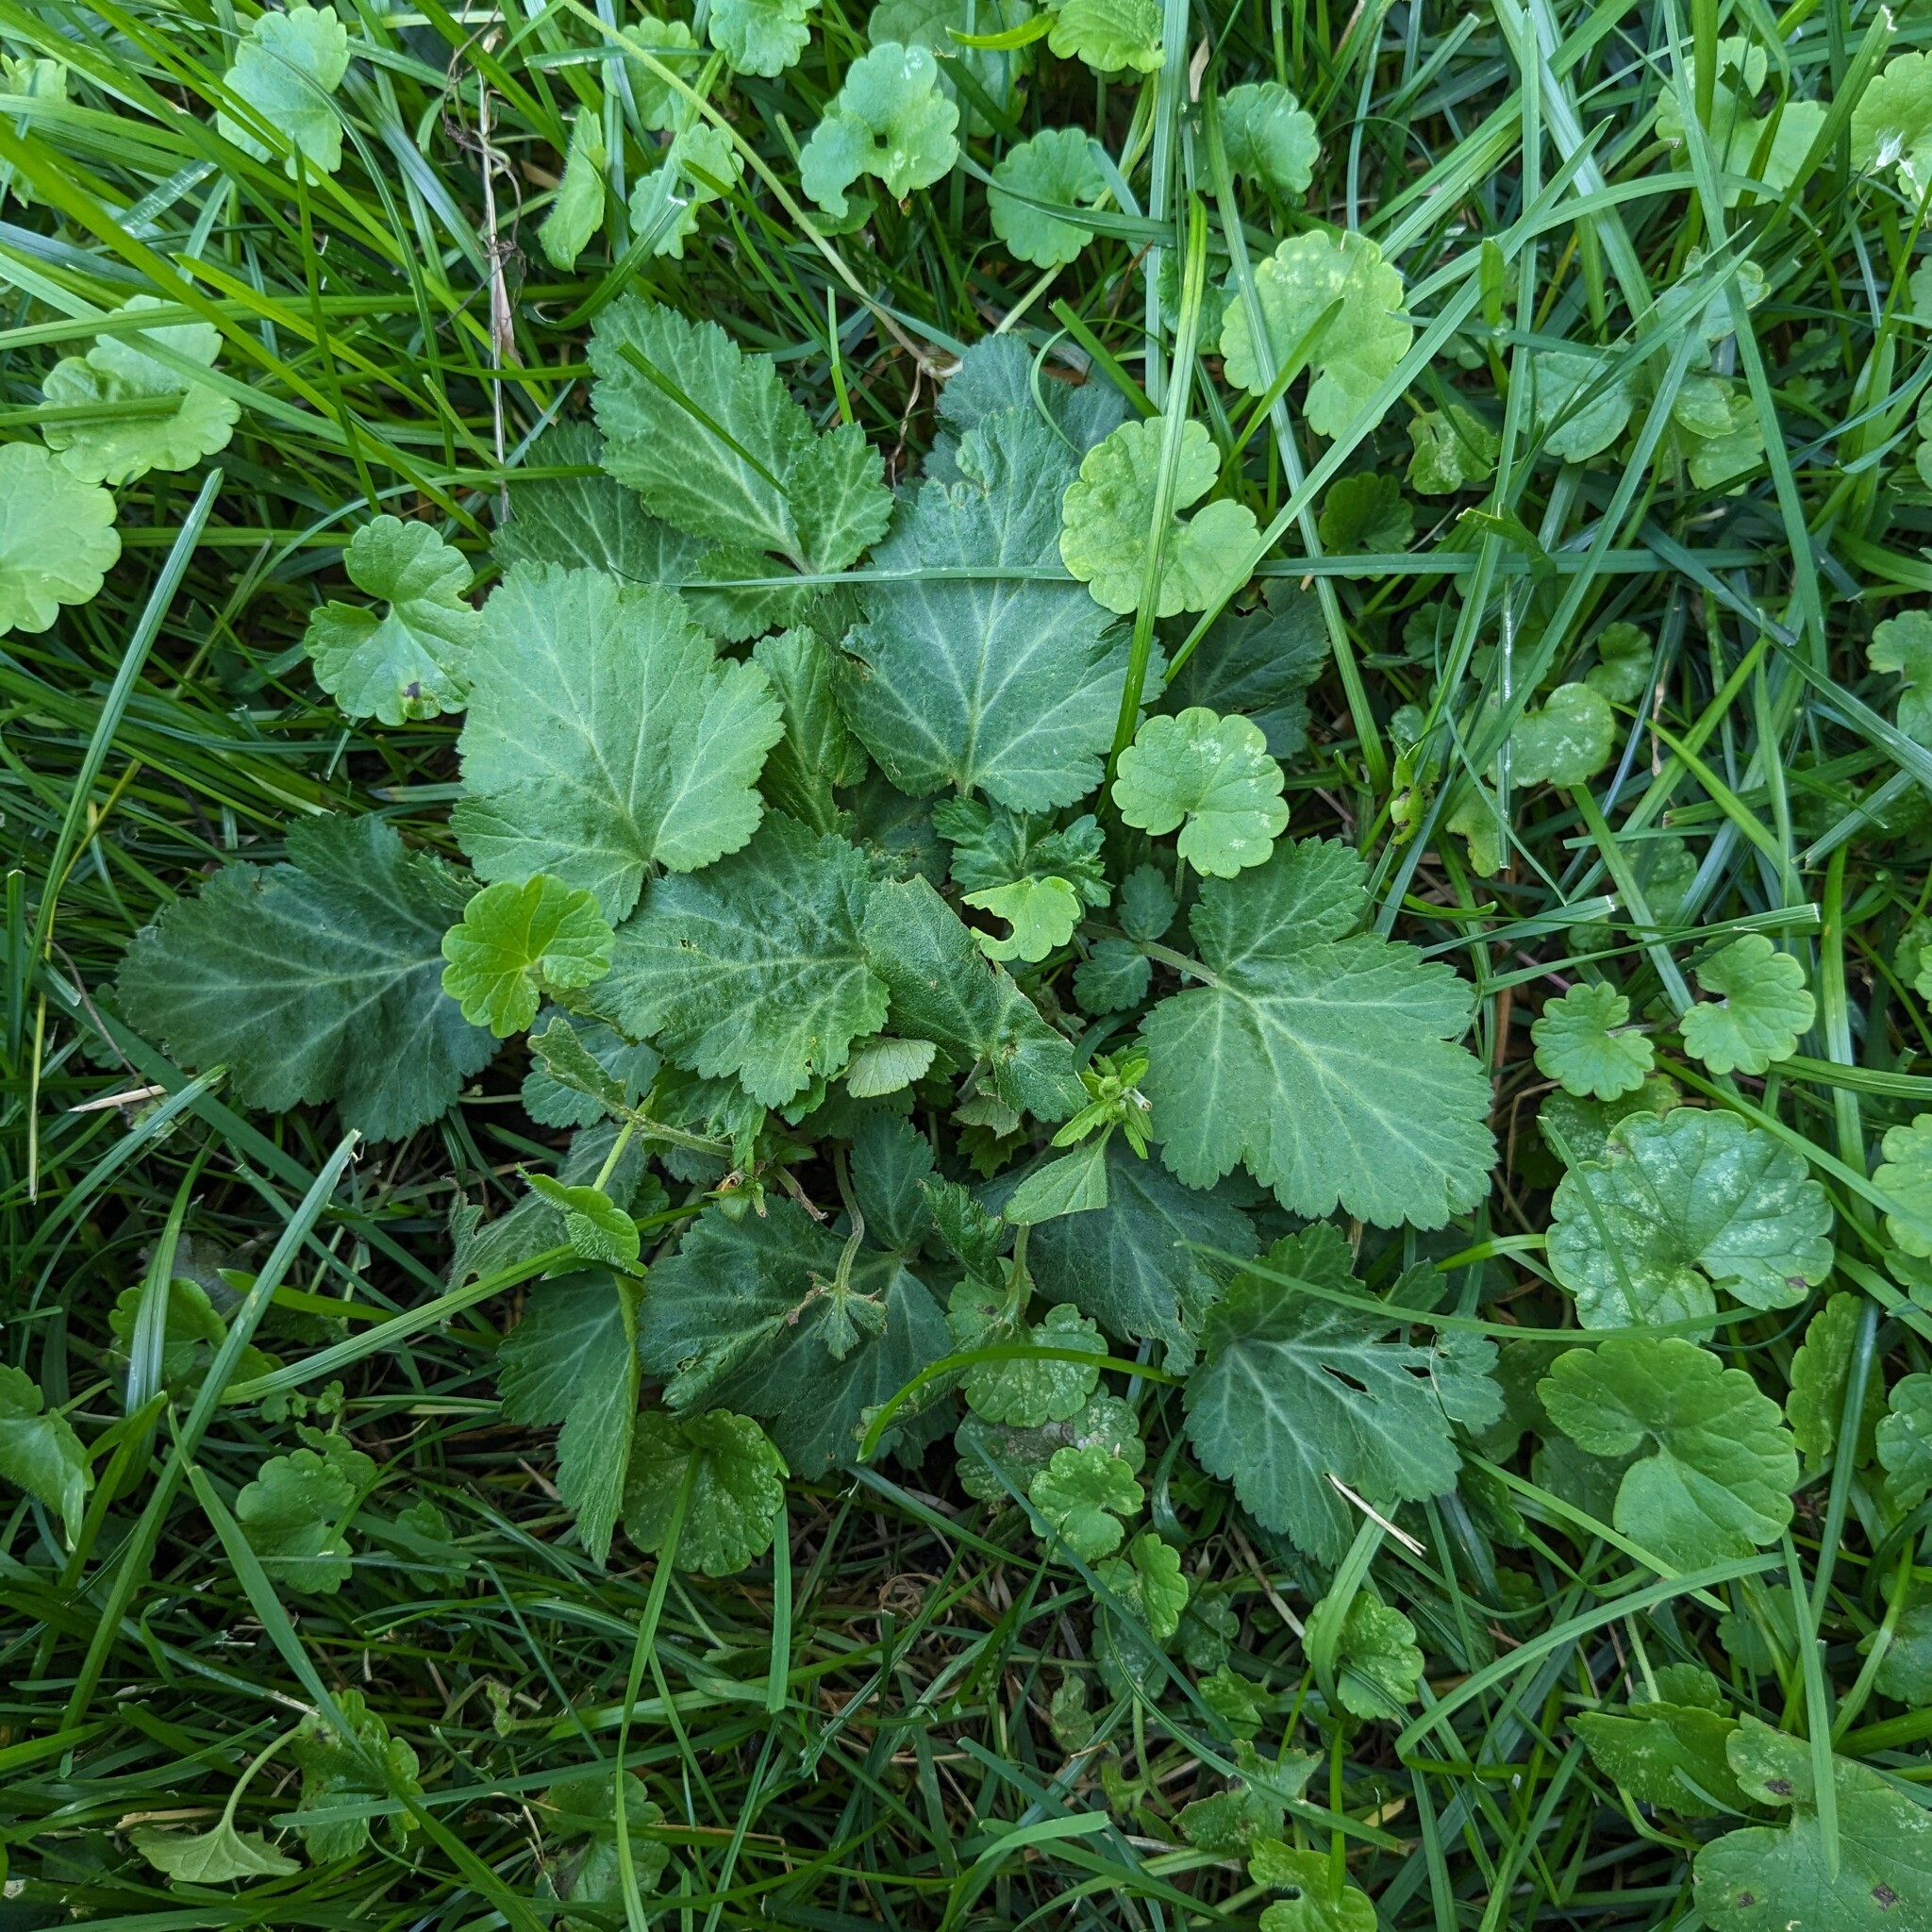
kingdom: Plantae
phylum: Tracheophyta
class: Magnoliopsida
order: Rosales
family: Rosaceae
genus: Geum
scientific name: Geum canadense
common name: White avens
